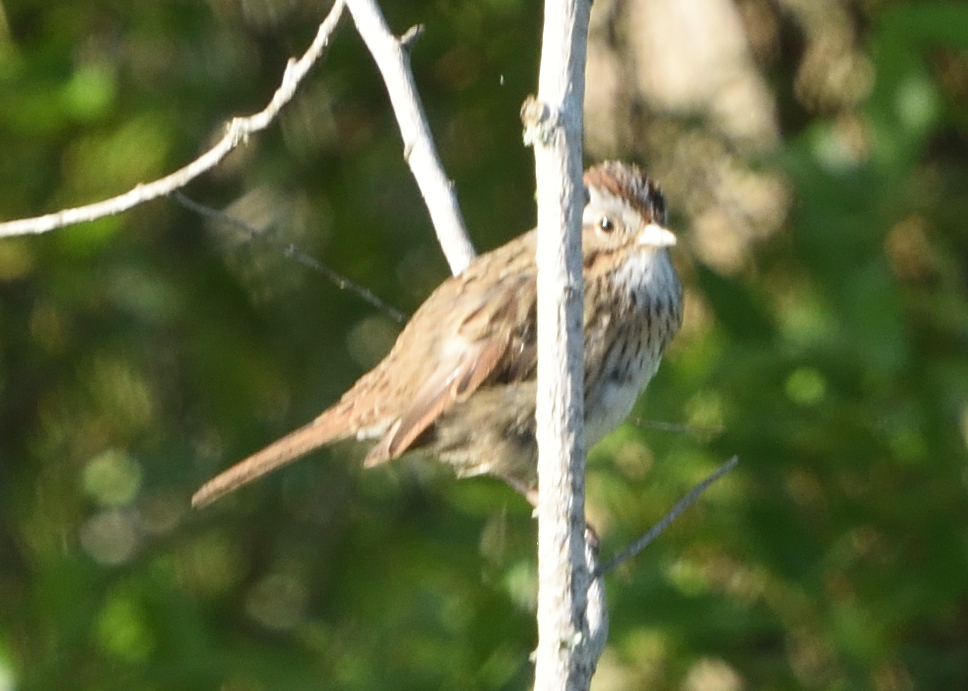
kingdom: Animalia
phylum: Chordata
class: Aves
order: Passeriformes
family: Passerellidae
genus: Melospiza
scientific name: Melospiza lincolnii
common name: Lincoln's sparrow
